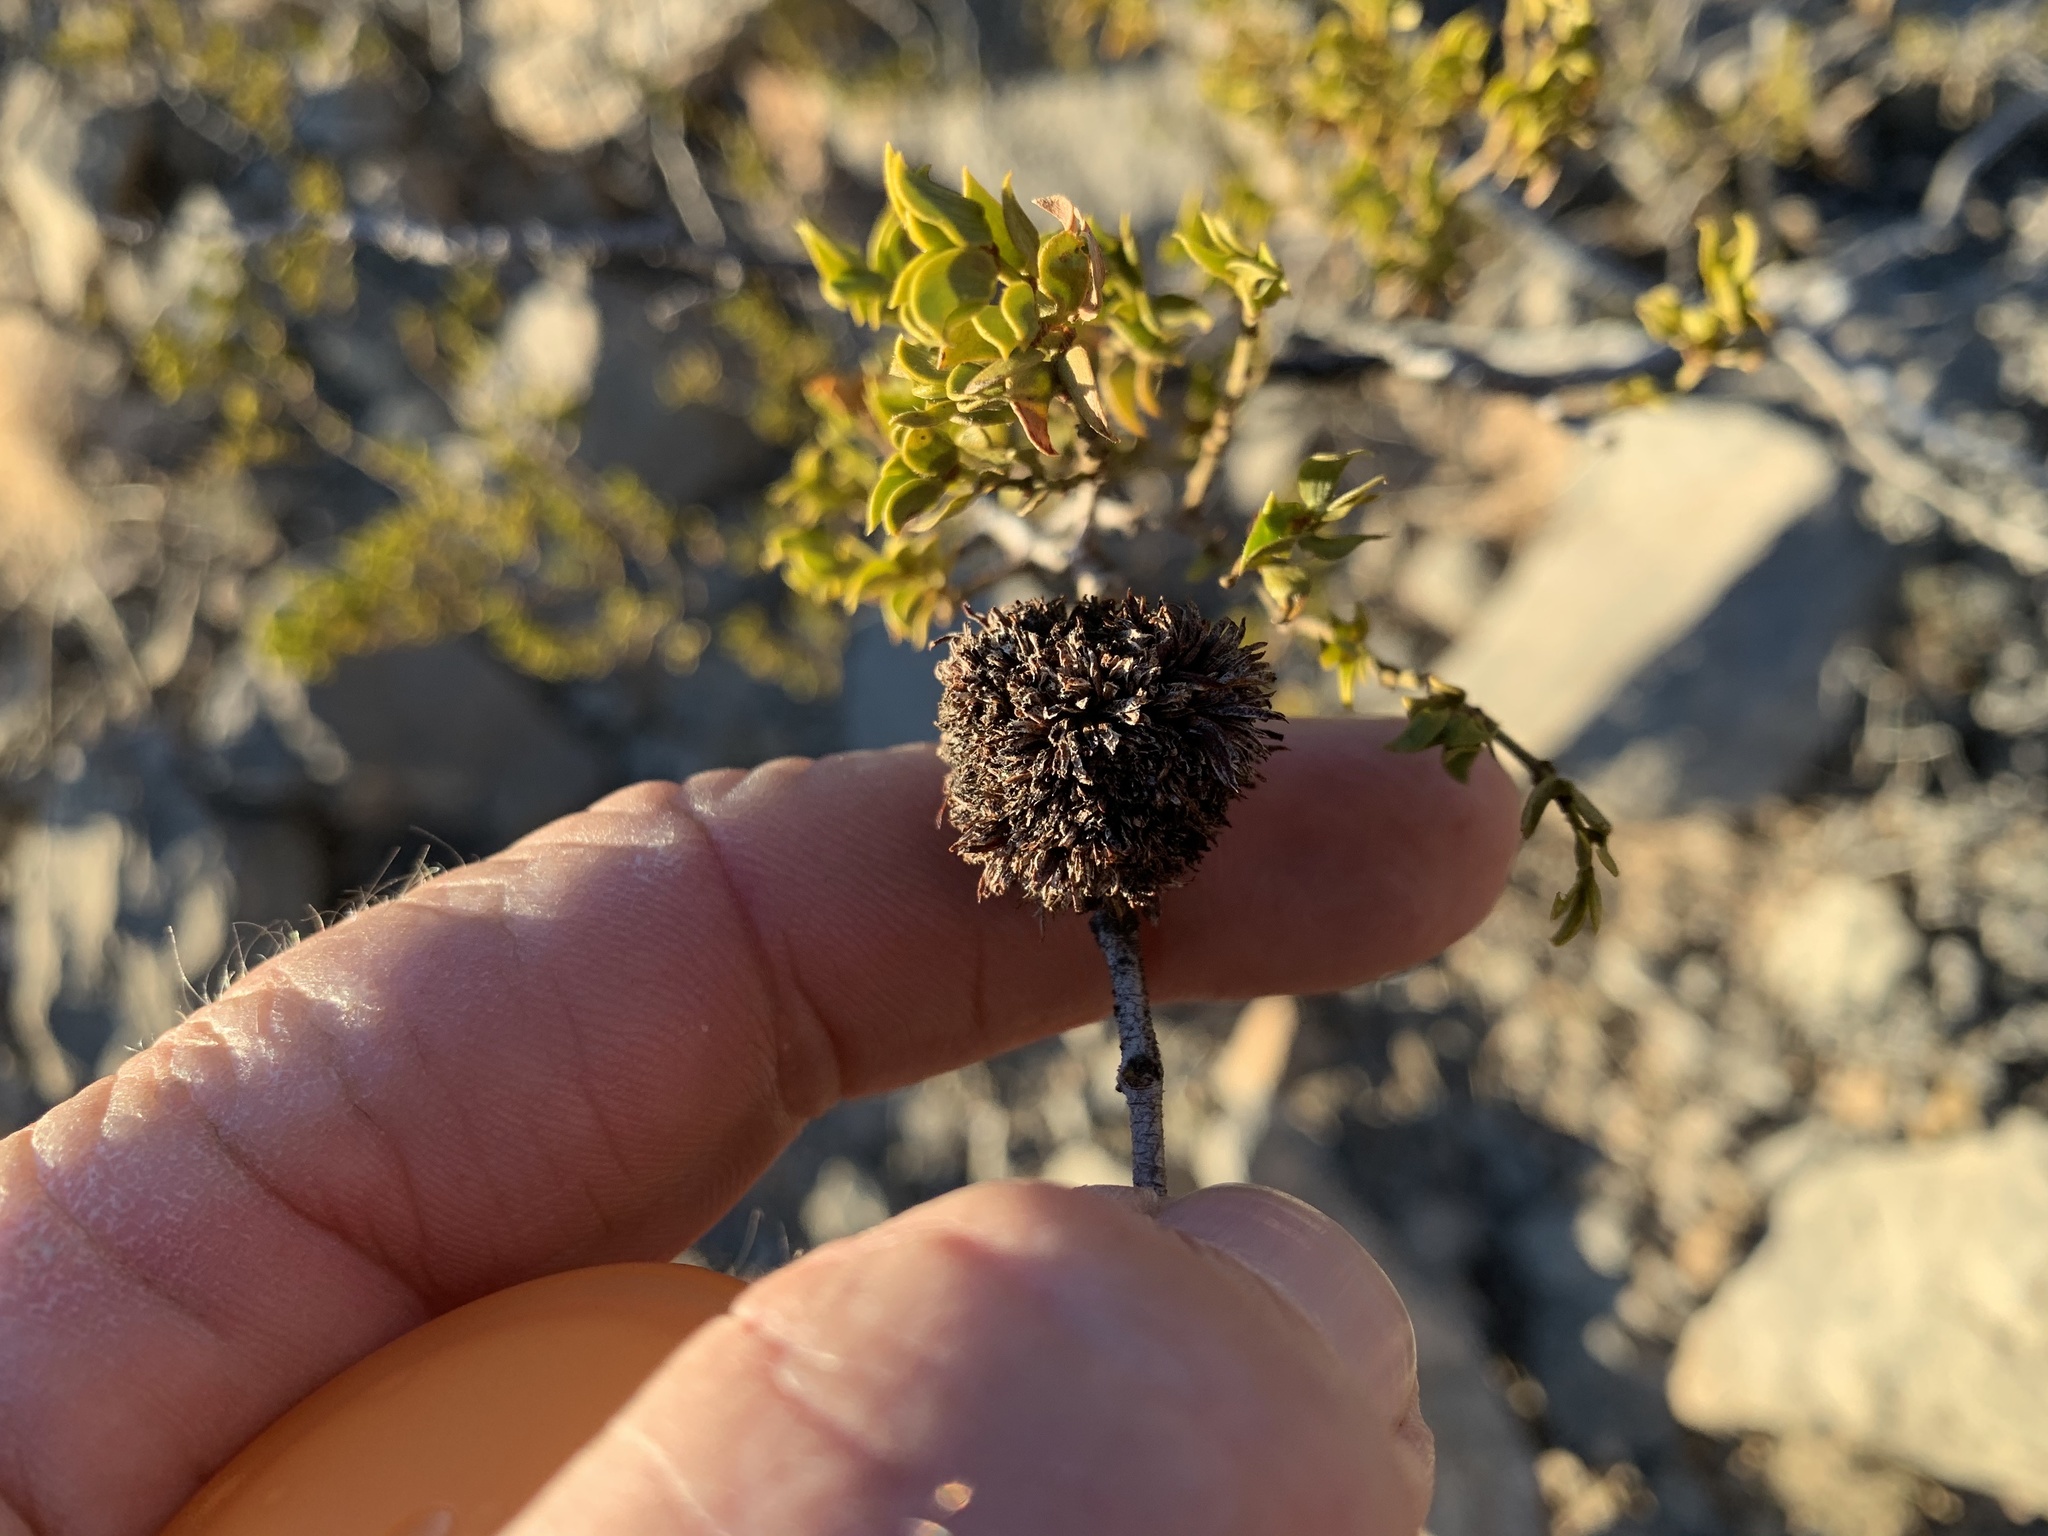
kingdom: Animalia
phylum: Arthropoda
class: Insecta
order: Diptera
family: Cecidomyiidae
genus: Asphondylia
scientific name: Asphondylia auripila
